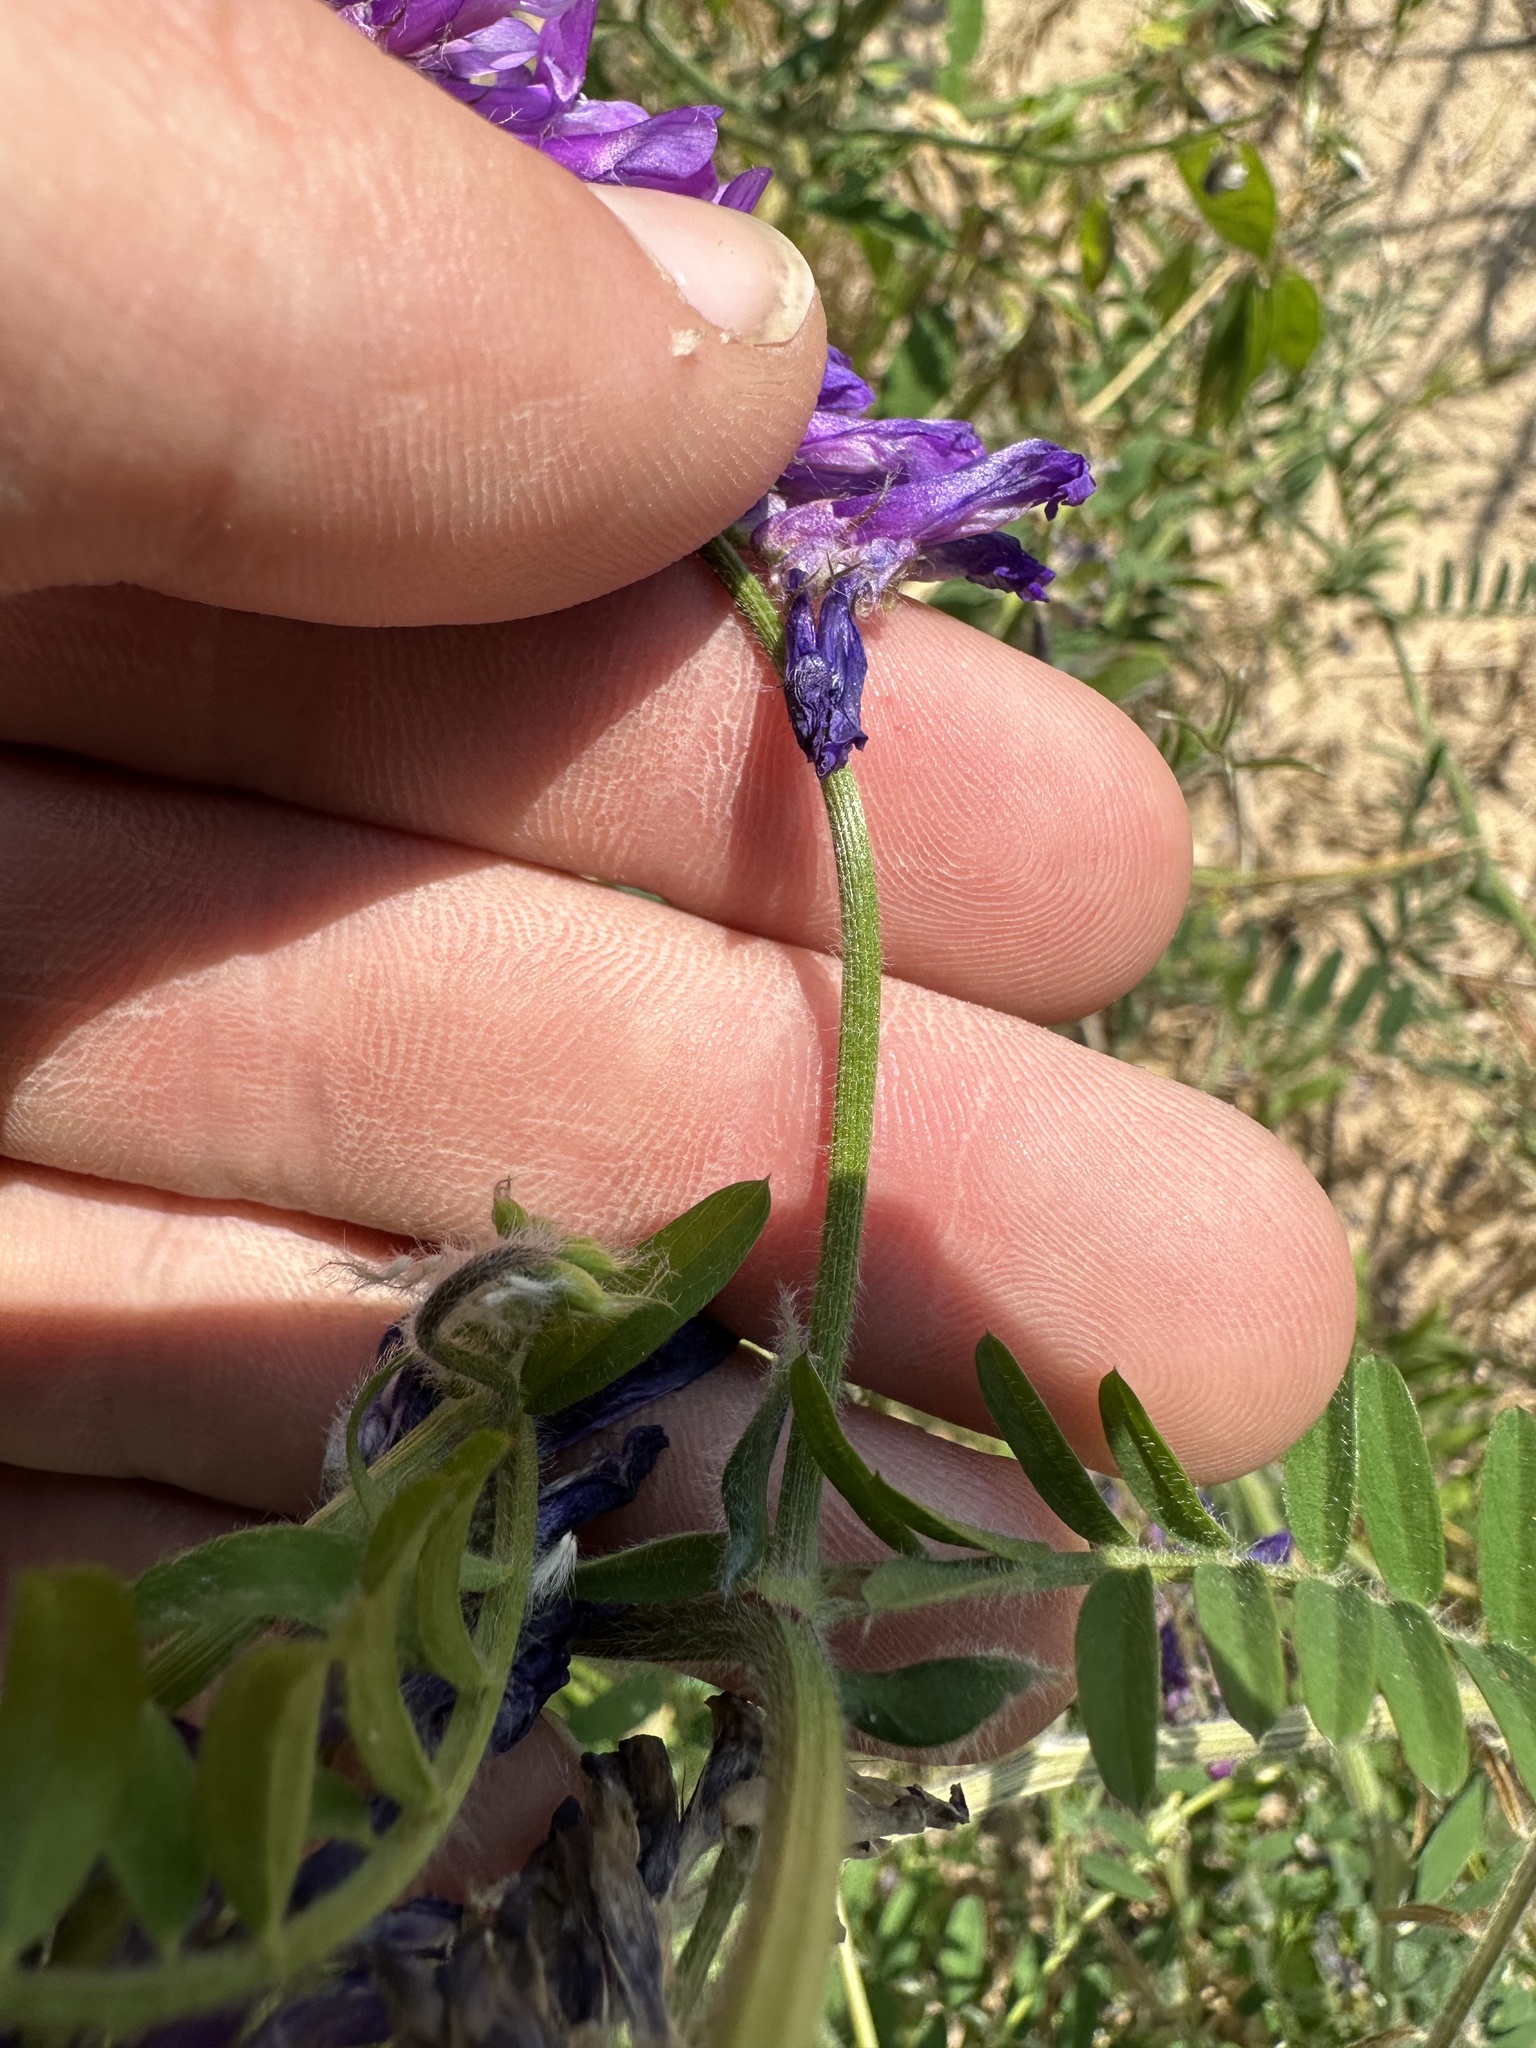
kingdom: Plantae
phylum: Tracheophyta
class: Magnoliopsida
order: Fabales
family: Fabaceae
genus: Vicia
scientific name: Vicia villosa
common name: Fodder vetch
